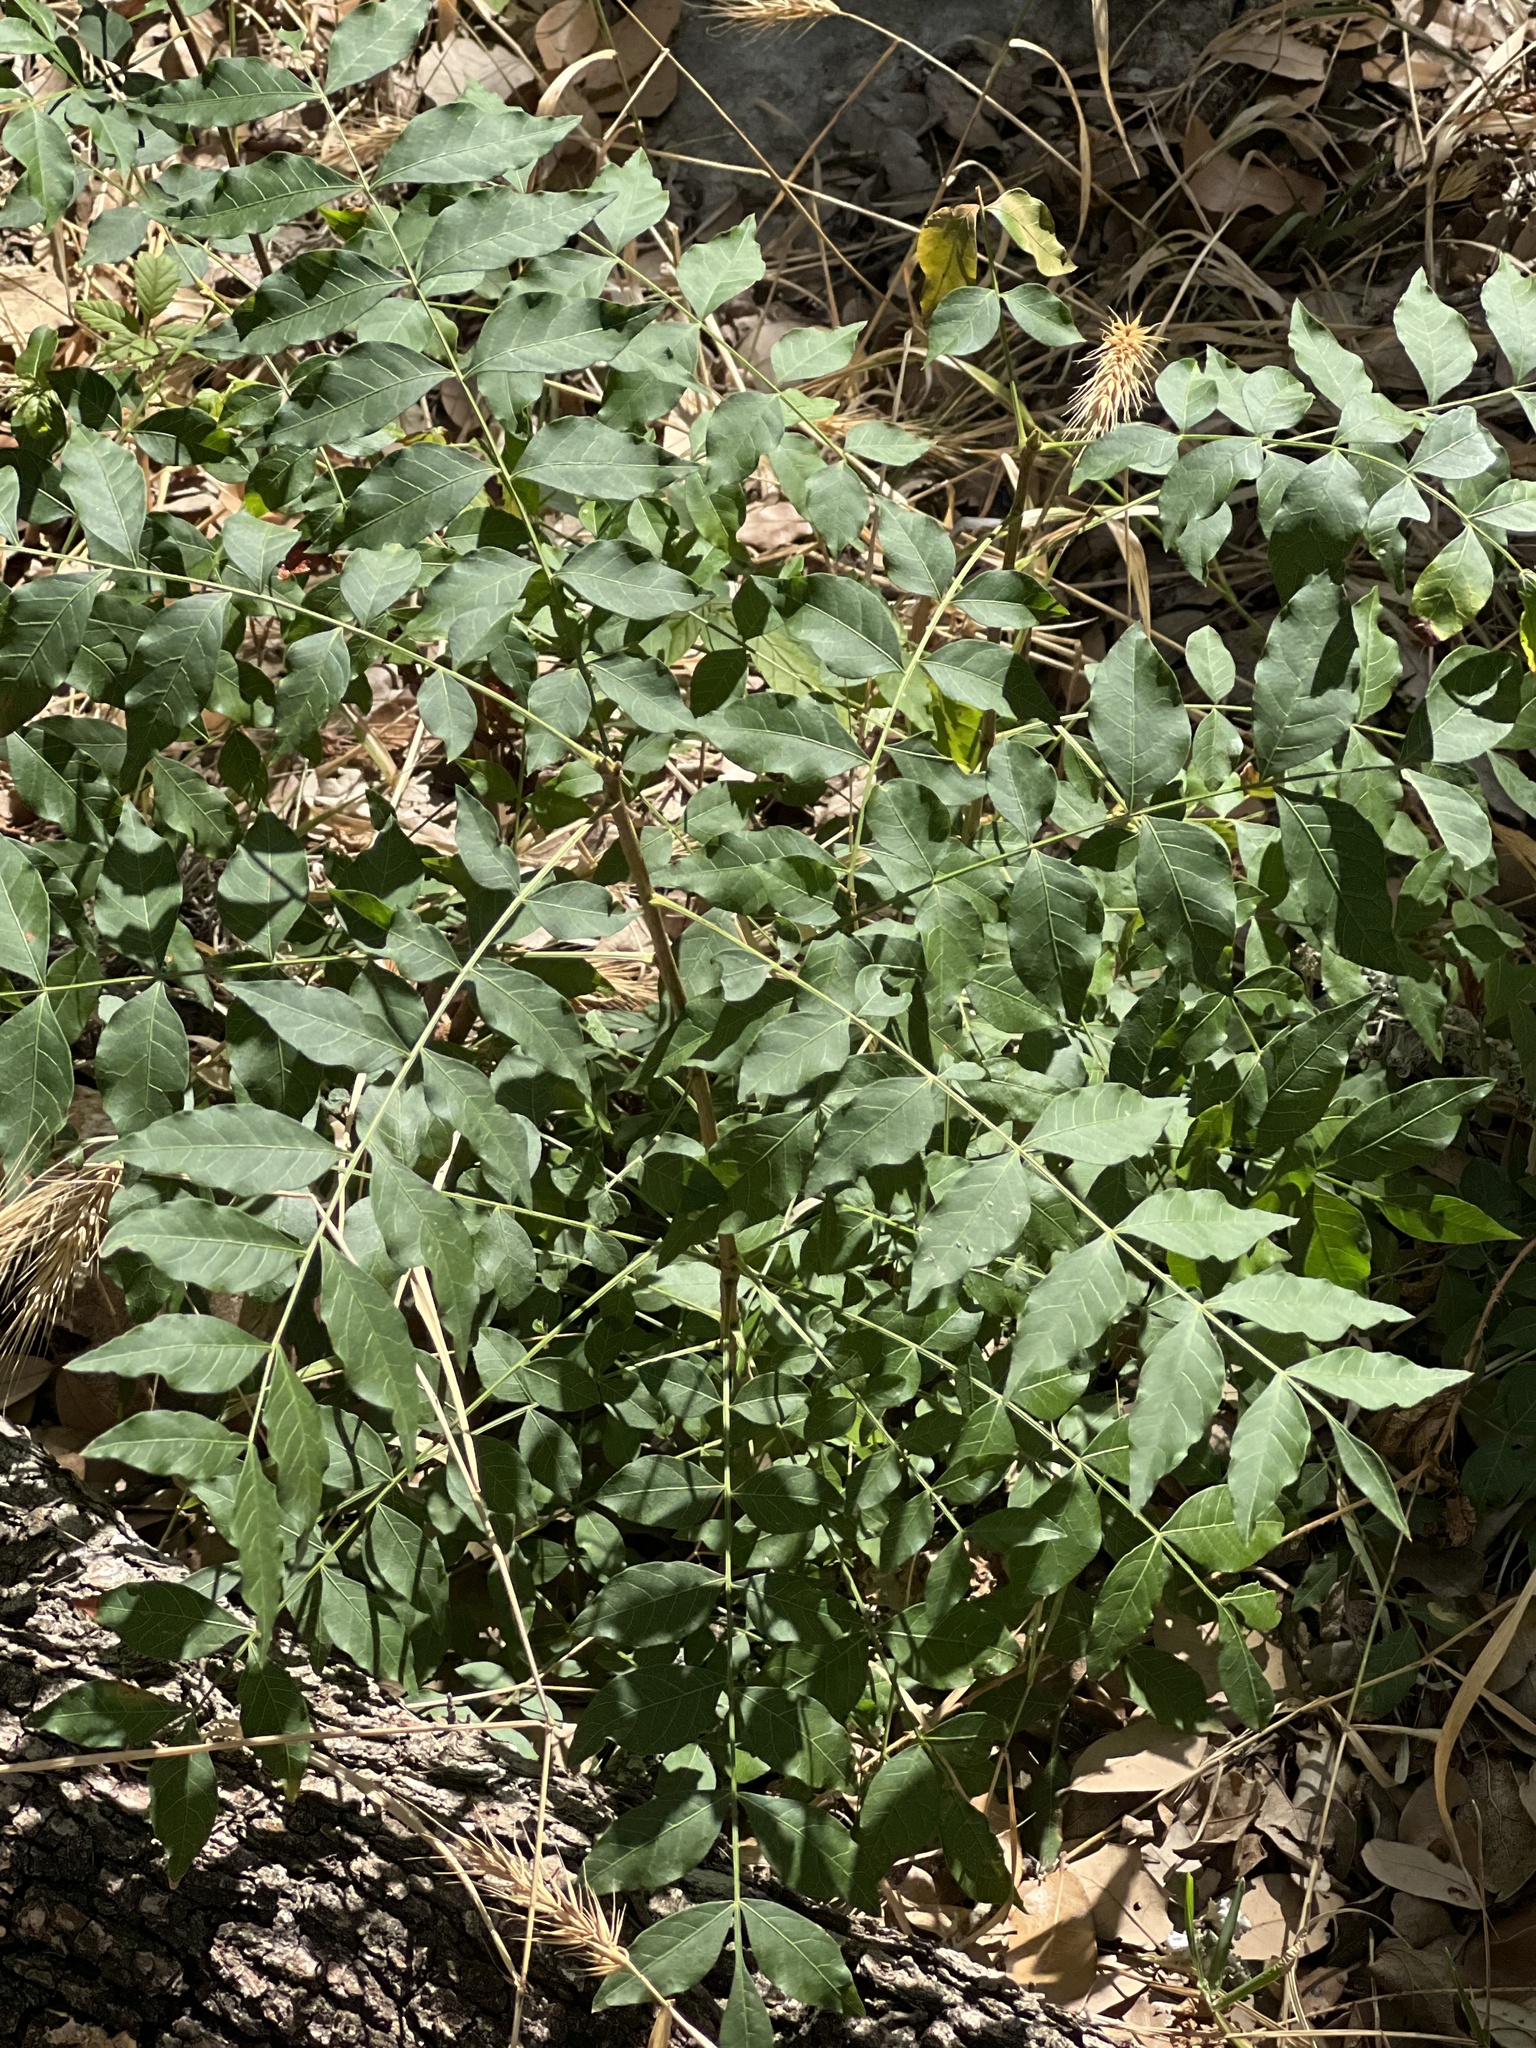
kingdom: Plantae
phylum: Tracheophyta
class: Magnoliopsida
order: Sapindales
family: Anacardiaceae
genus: Pistacia
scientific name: Pistacia chinensis
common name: Chinese pistache
